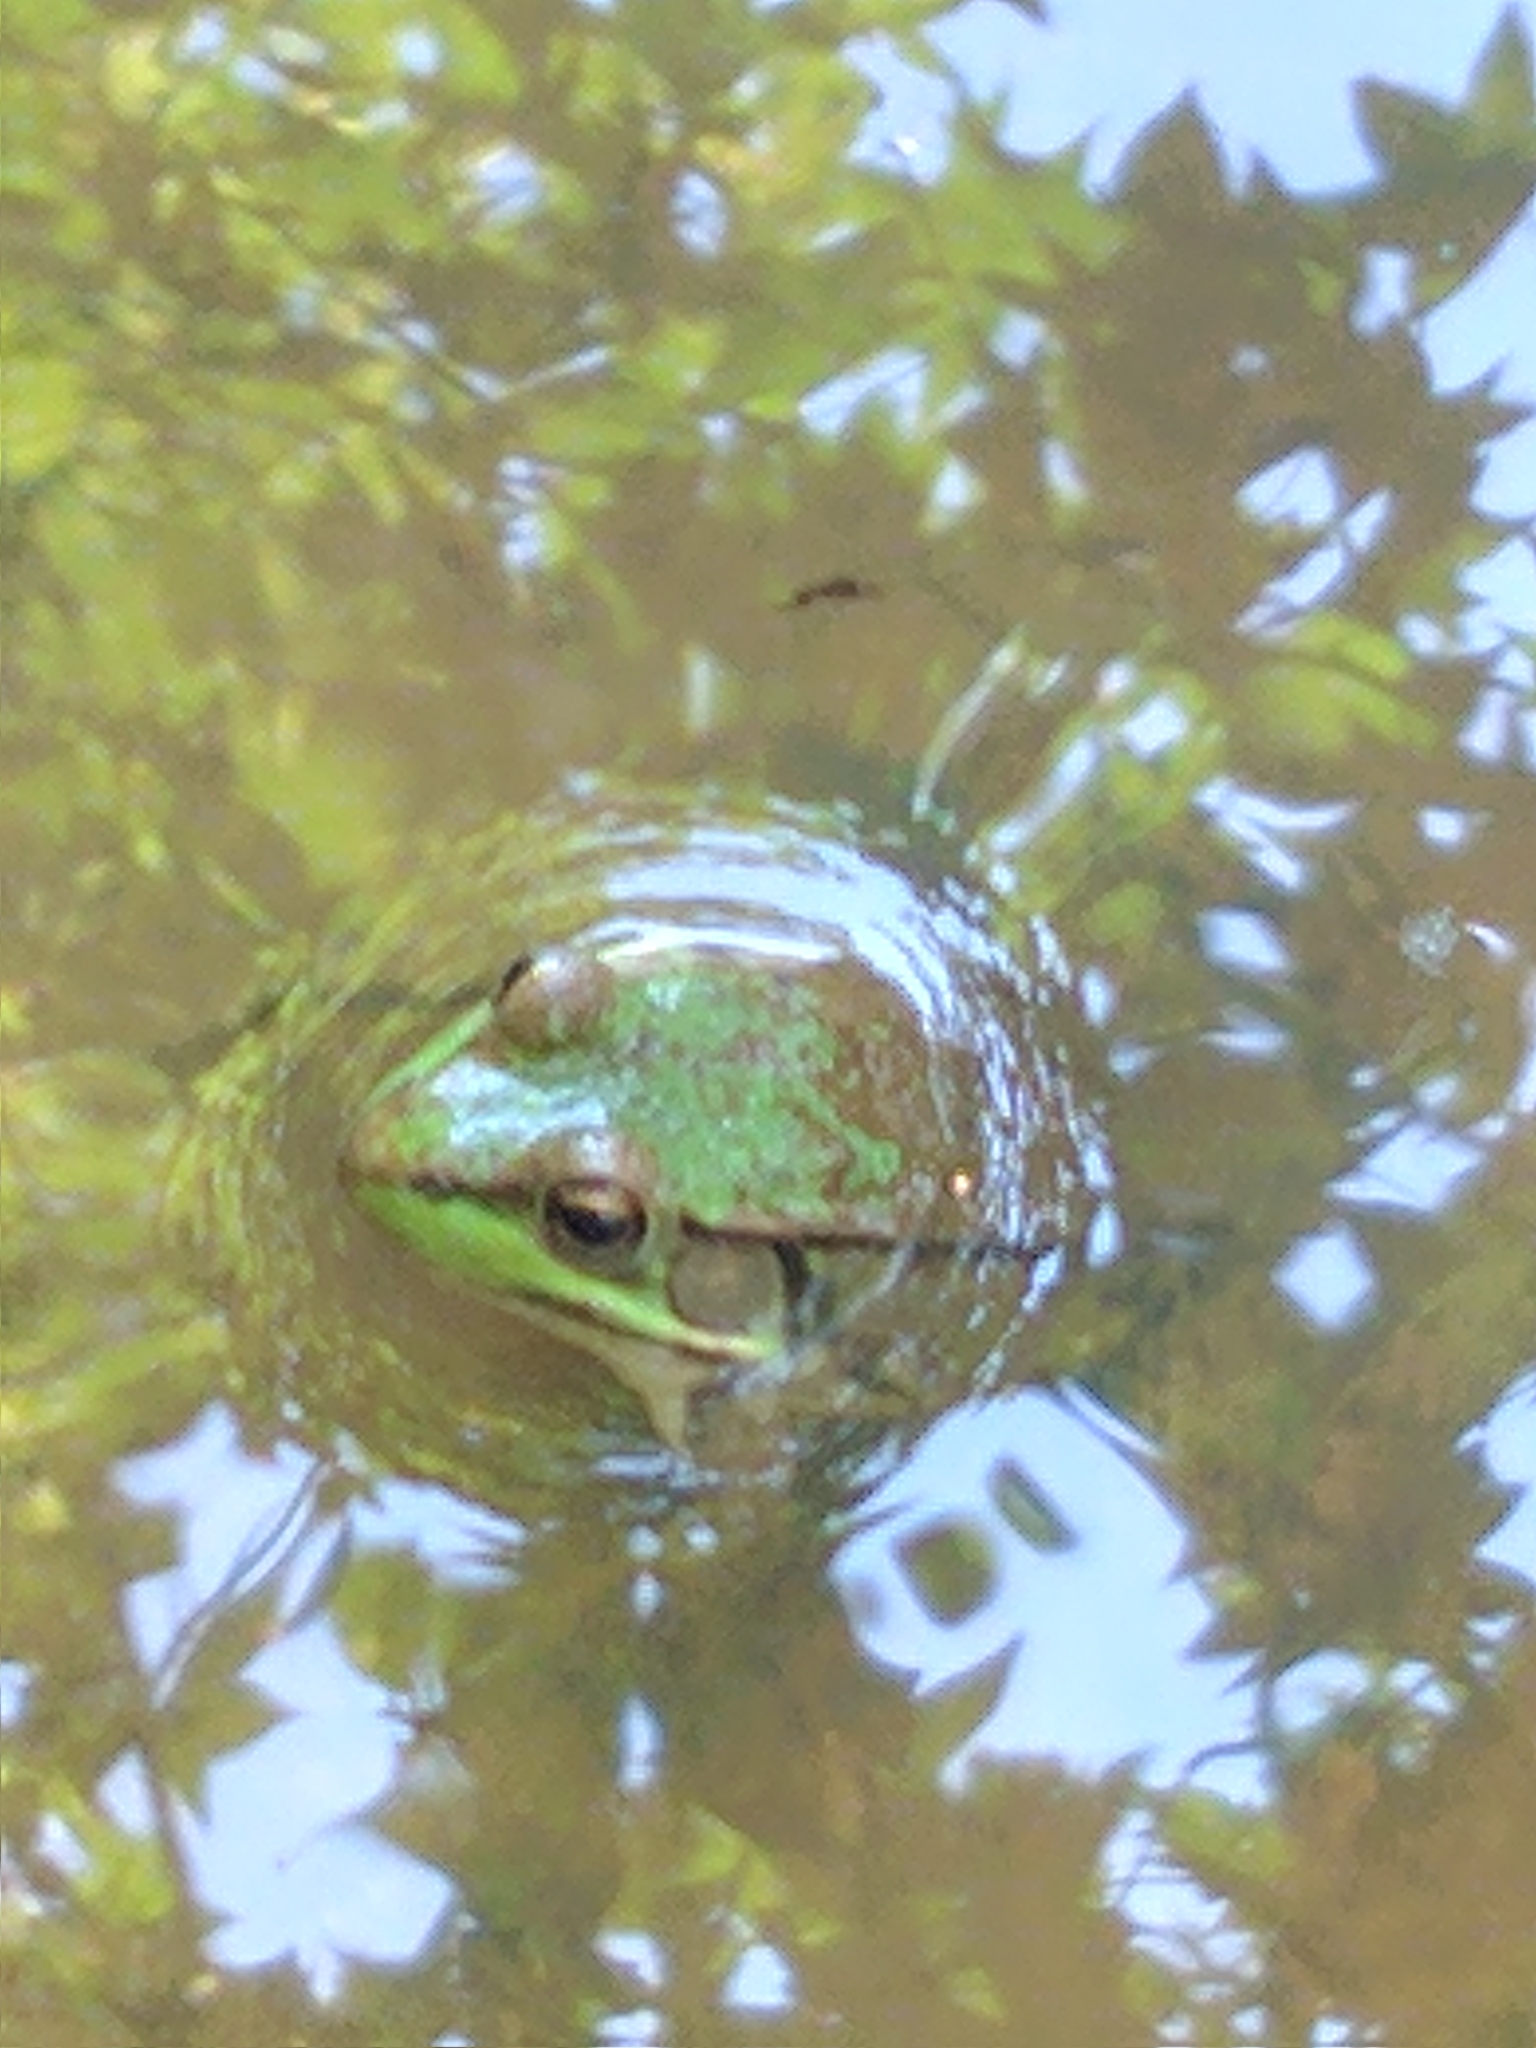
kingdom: Animalia
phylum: Chordata
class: Amphibia
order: Anura
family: Ranidae
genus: Lithobates
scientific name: Lithobates clamitans
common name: Green frog
